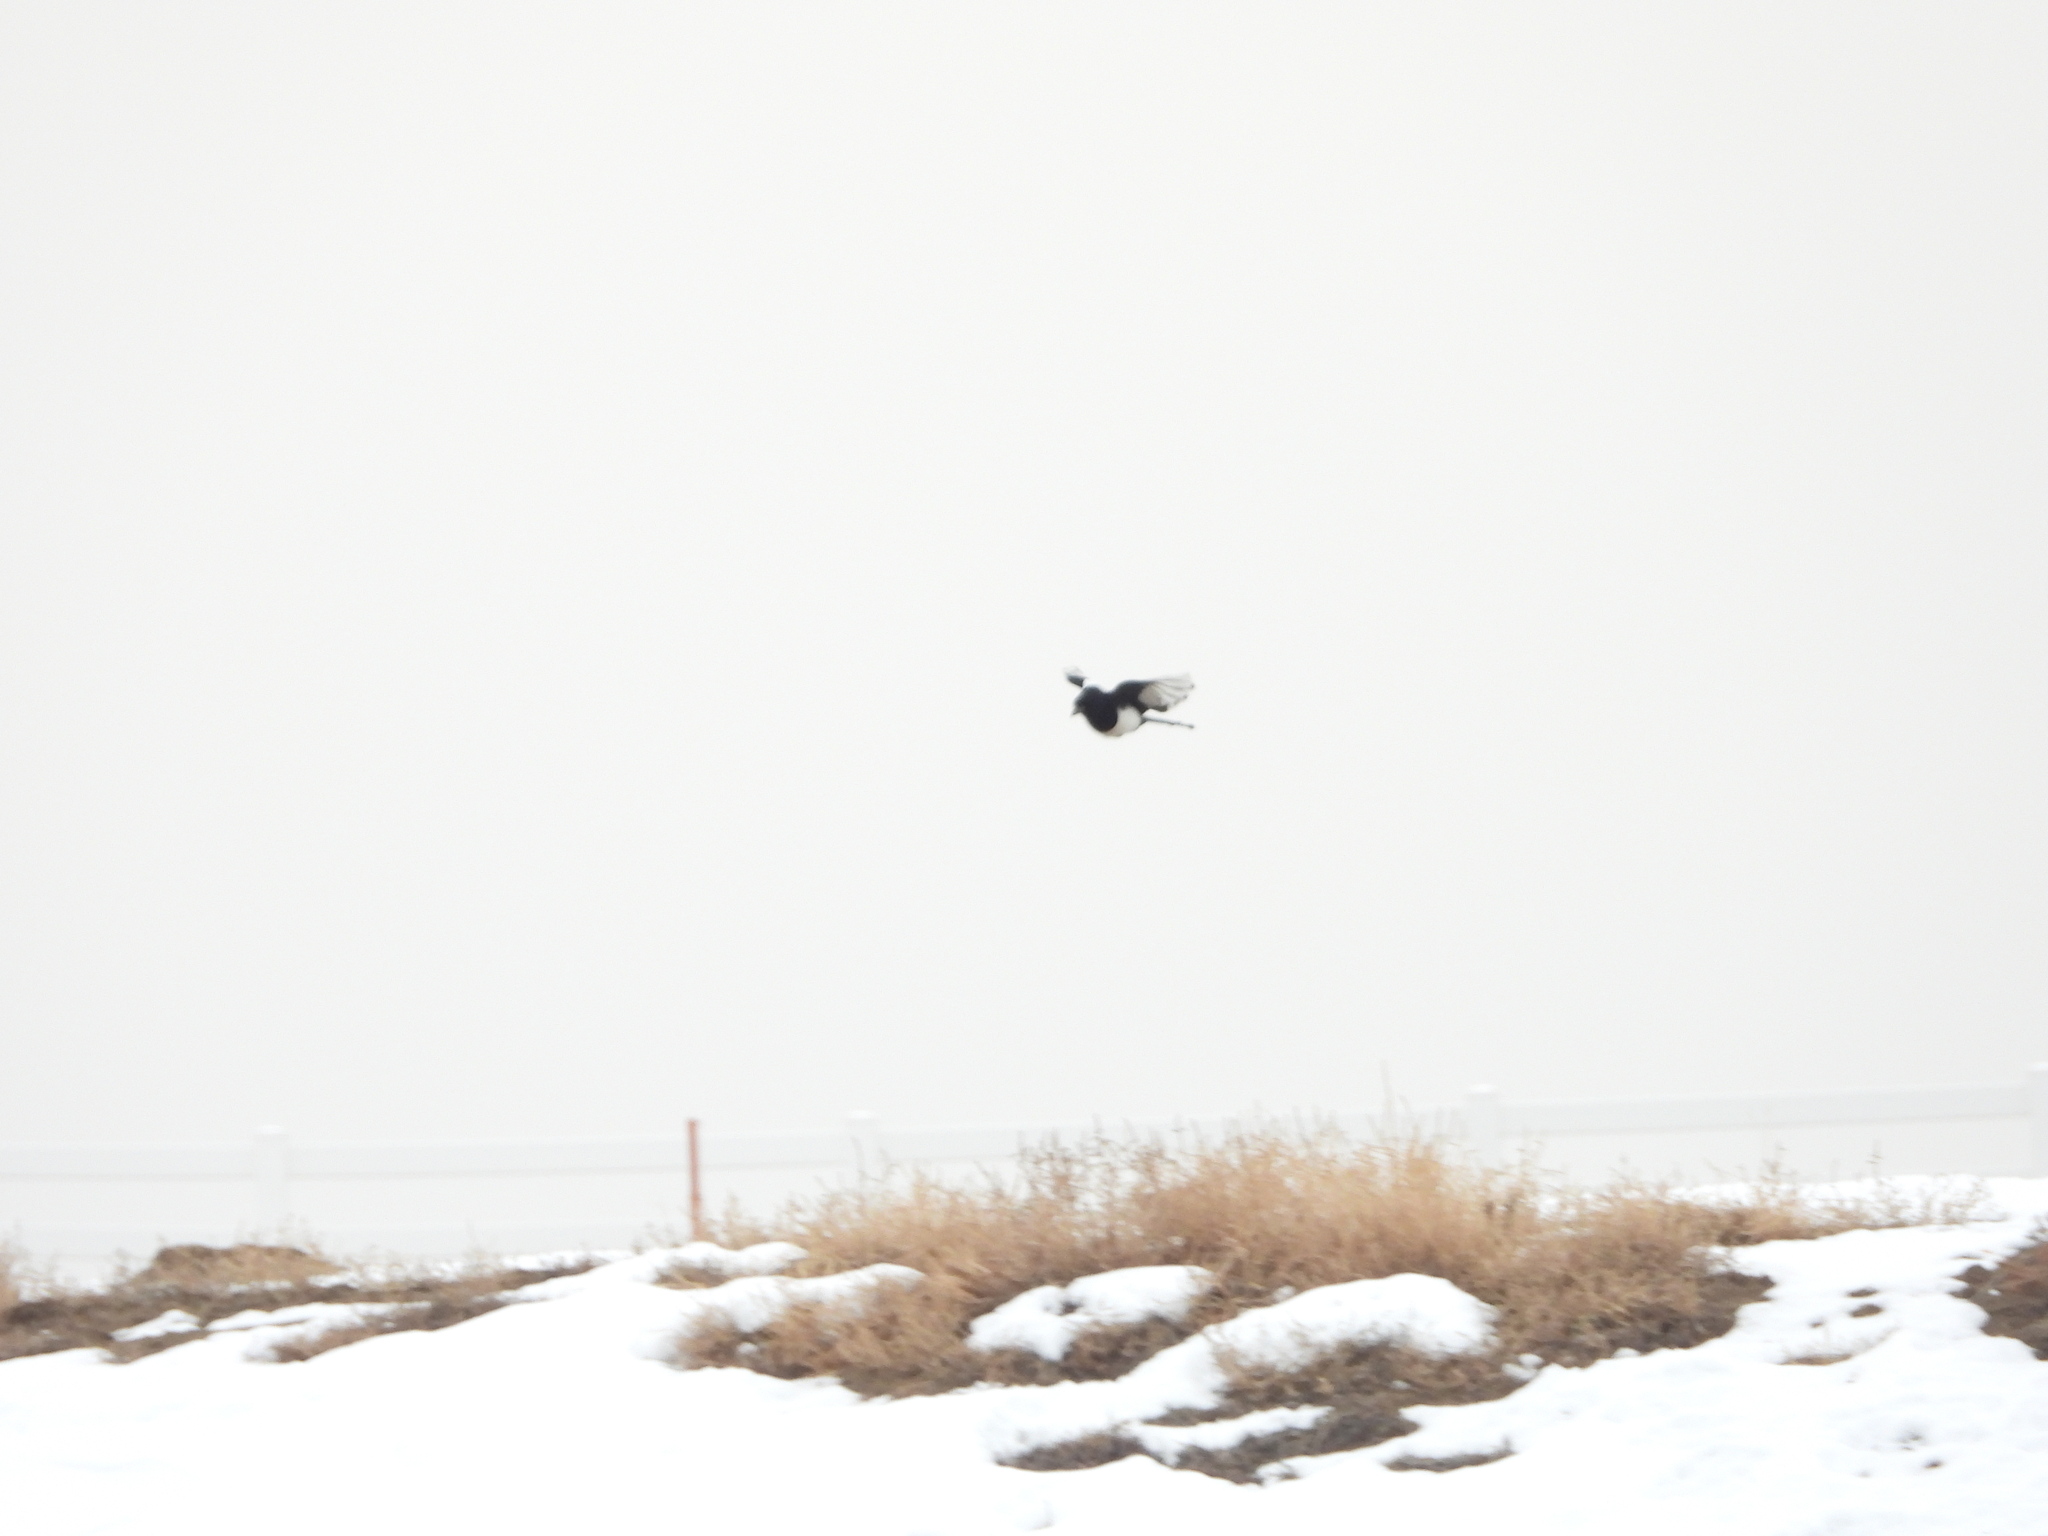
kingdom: Animalia
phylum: Chordata
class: Aves
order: Passeriformes
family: Corvidae
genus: Pica
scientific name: Pica hudsonia
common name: Black-billed magpie
